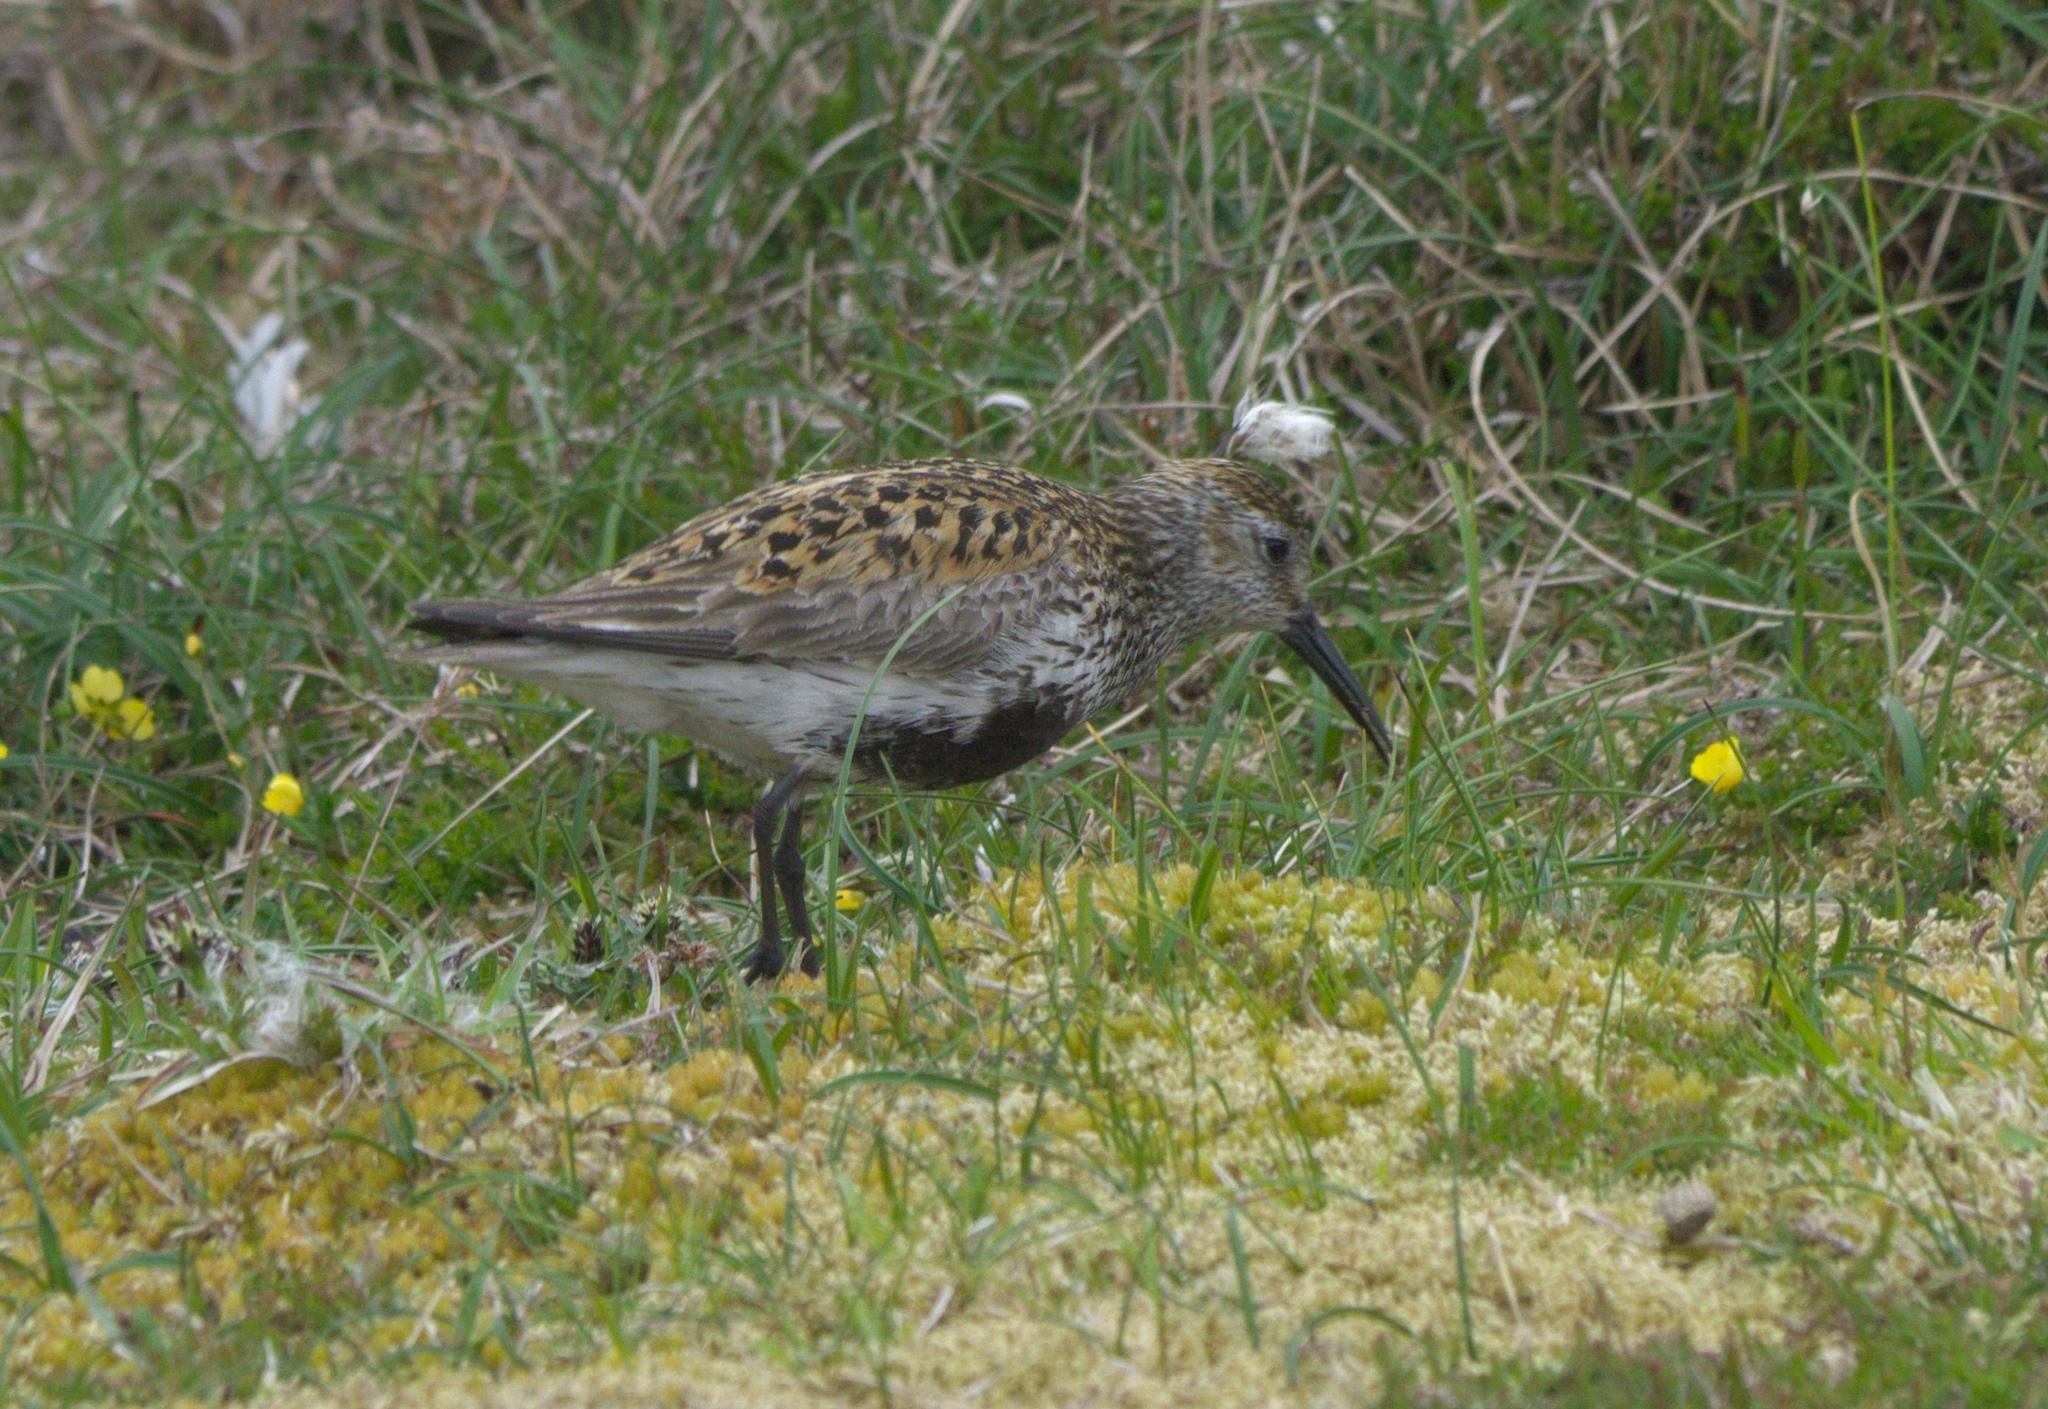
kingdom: Animalia
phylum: Chordata
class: Aves
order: Charadriiformes
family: Scolopacidae
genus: Calidris
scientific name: Calidris alpina
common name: Dunlin
